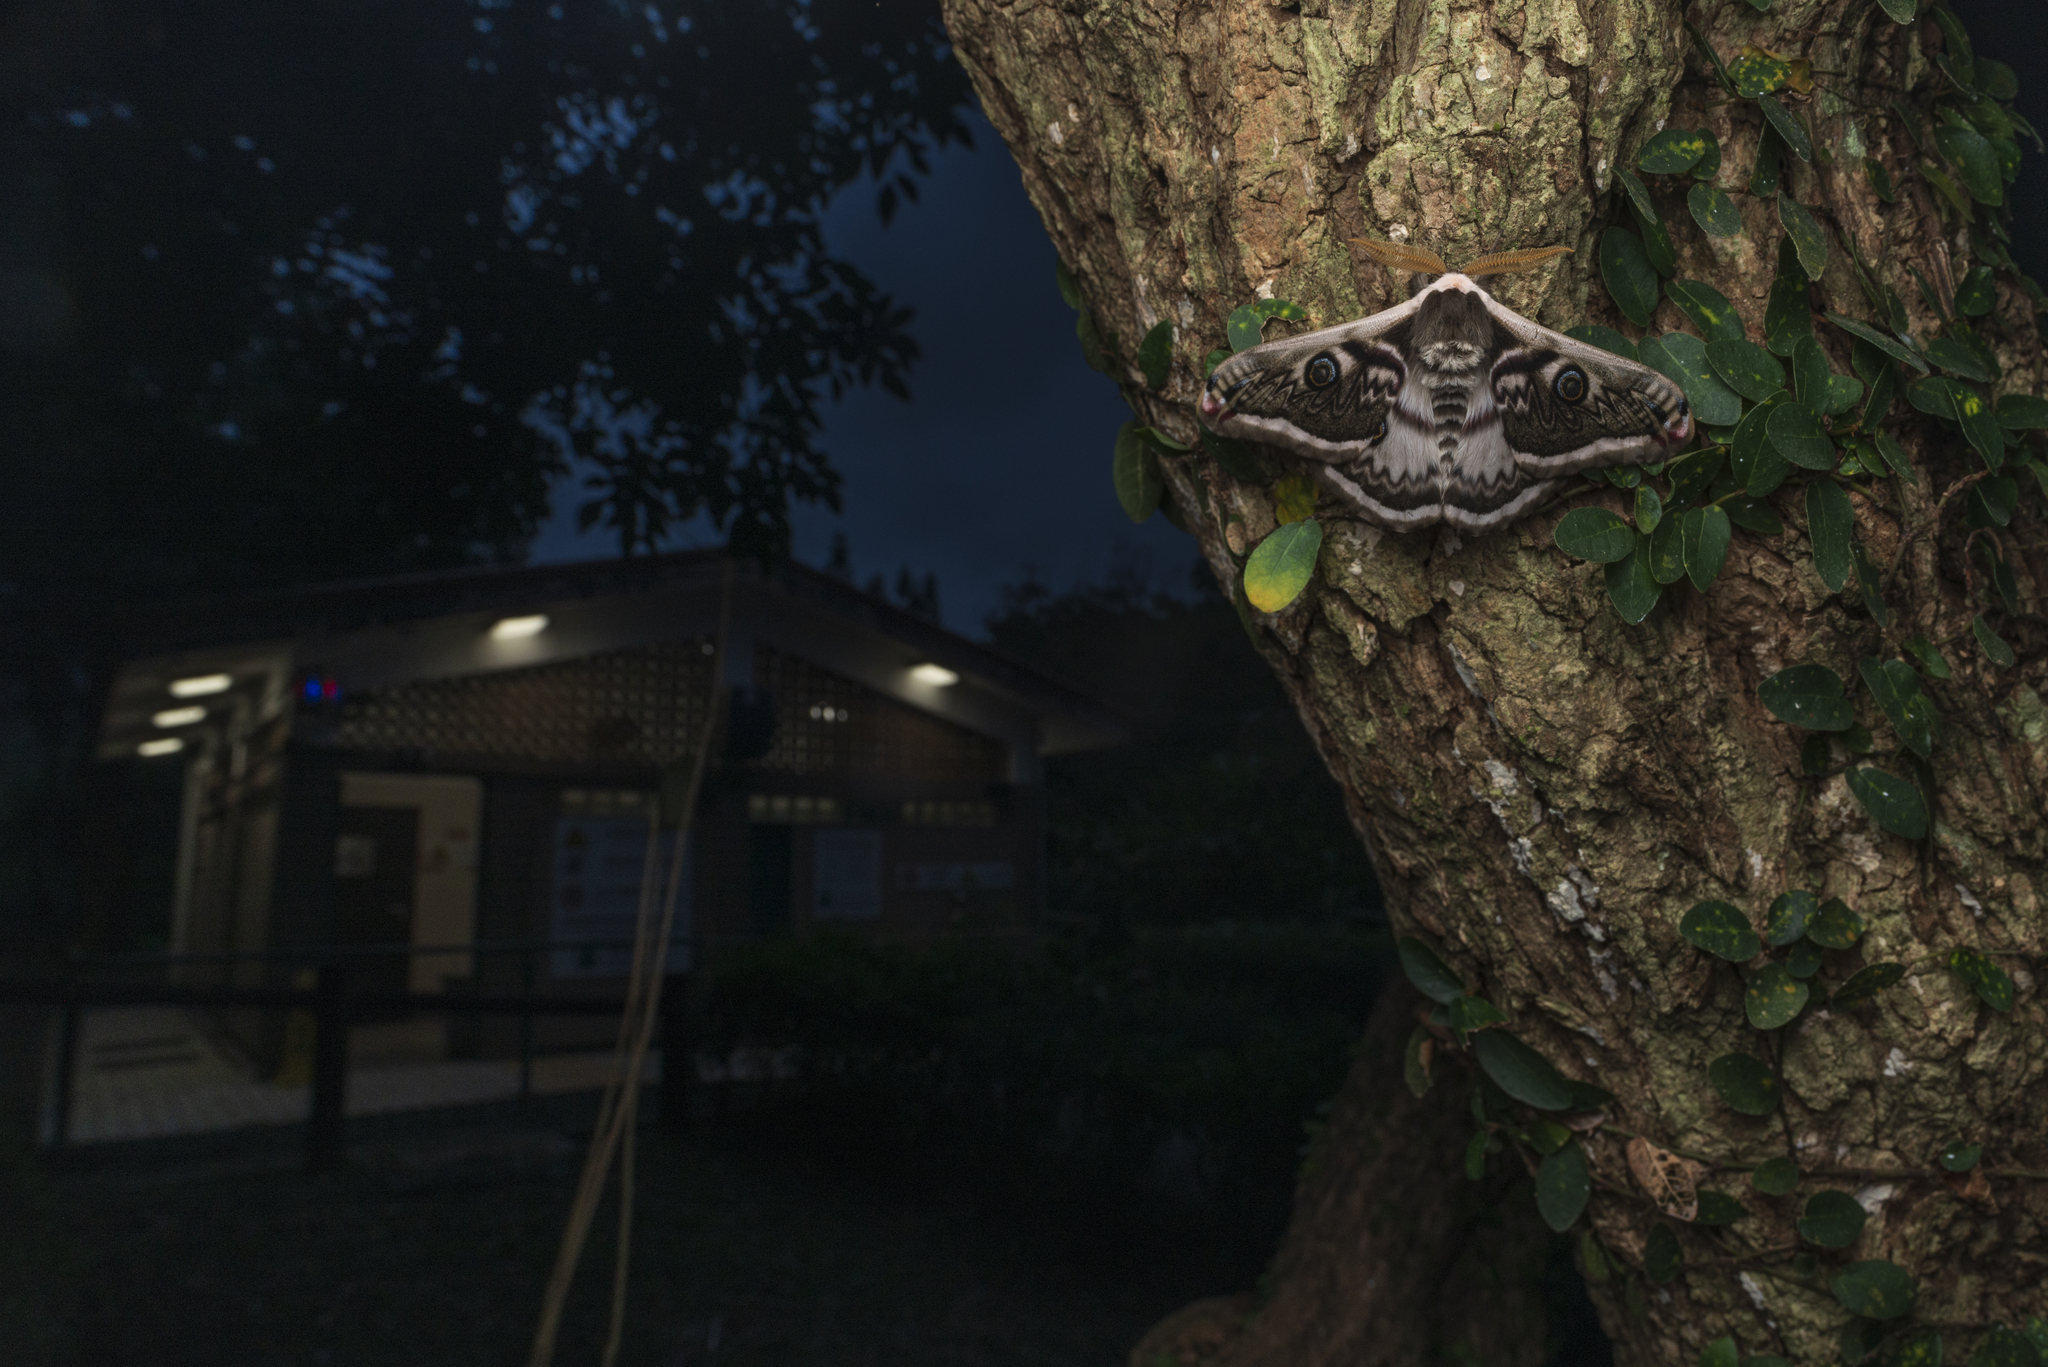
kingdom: Animalia
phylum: Arthropoda
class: Insecta
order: Lepidoptera
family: Saturniidae
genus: Saturnia
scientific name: Saturnia pyretorum
